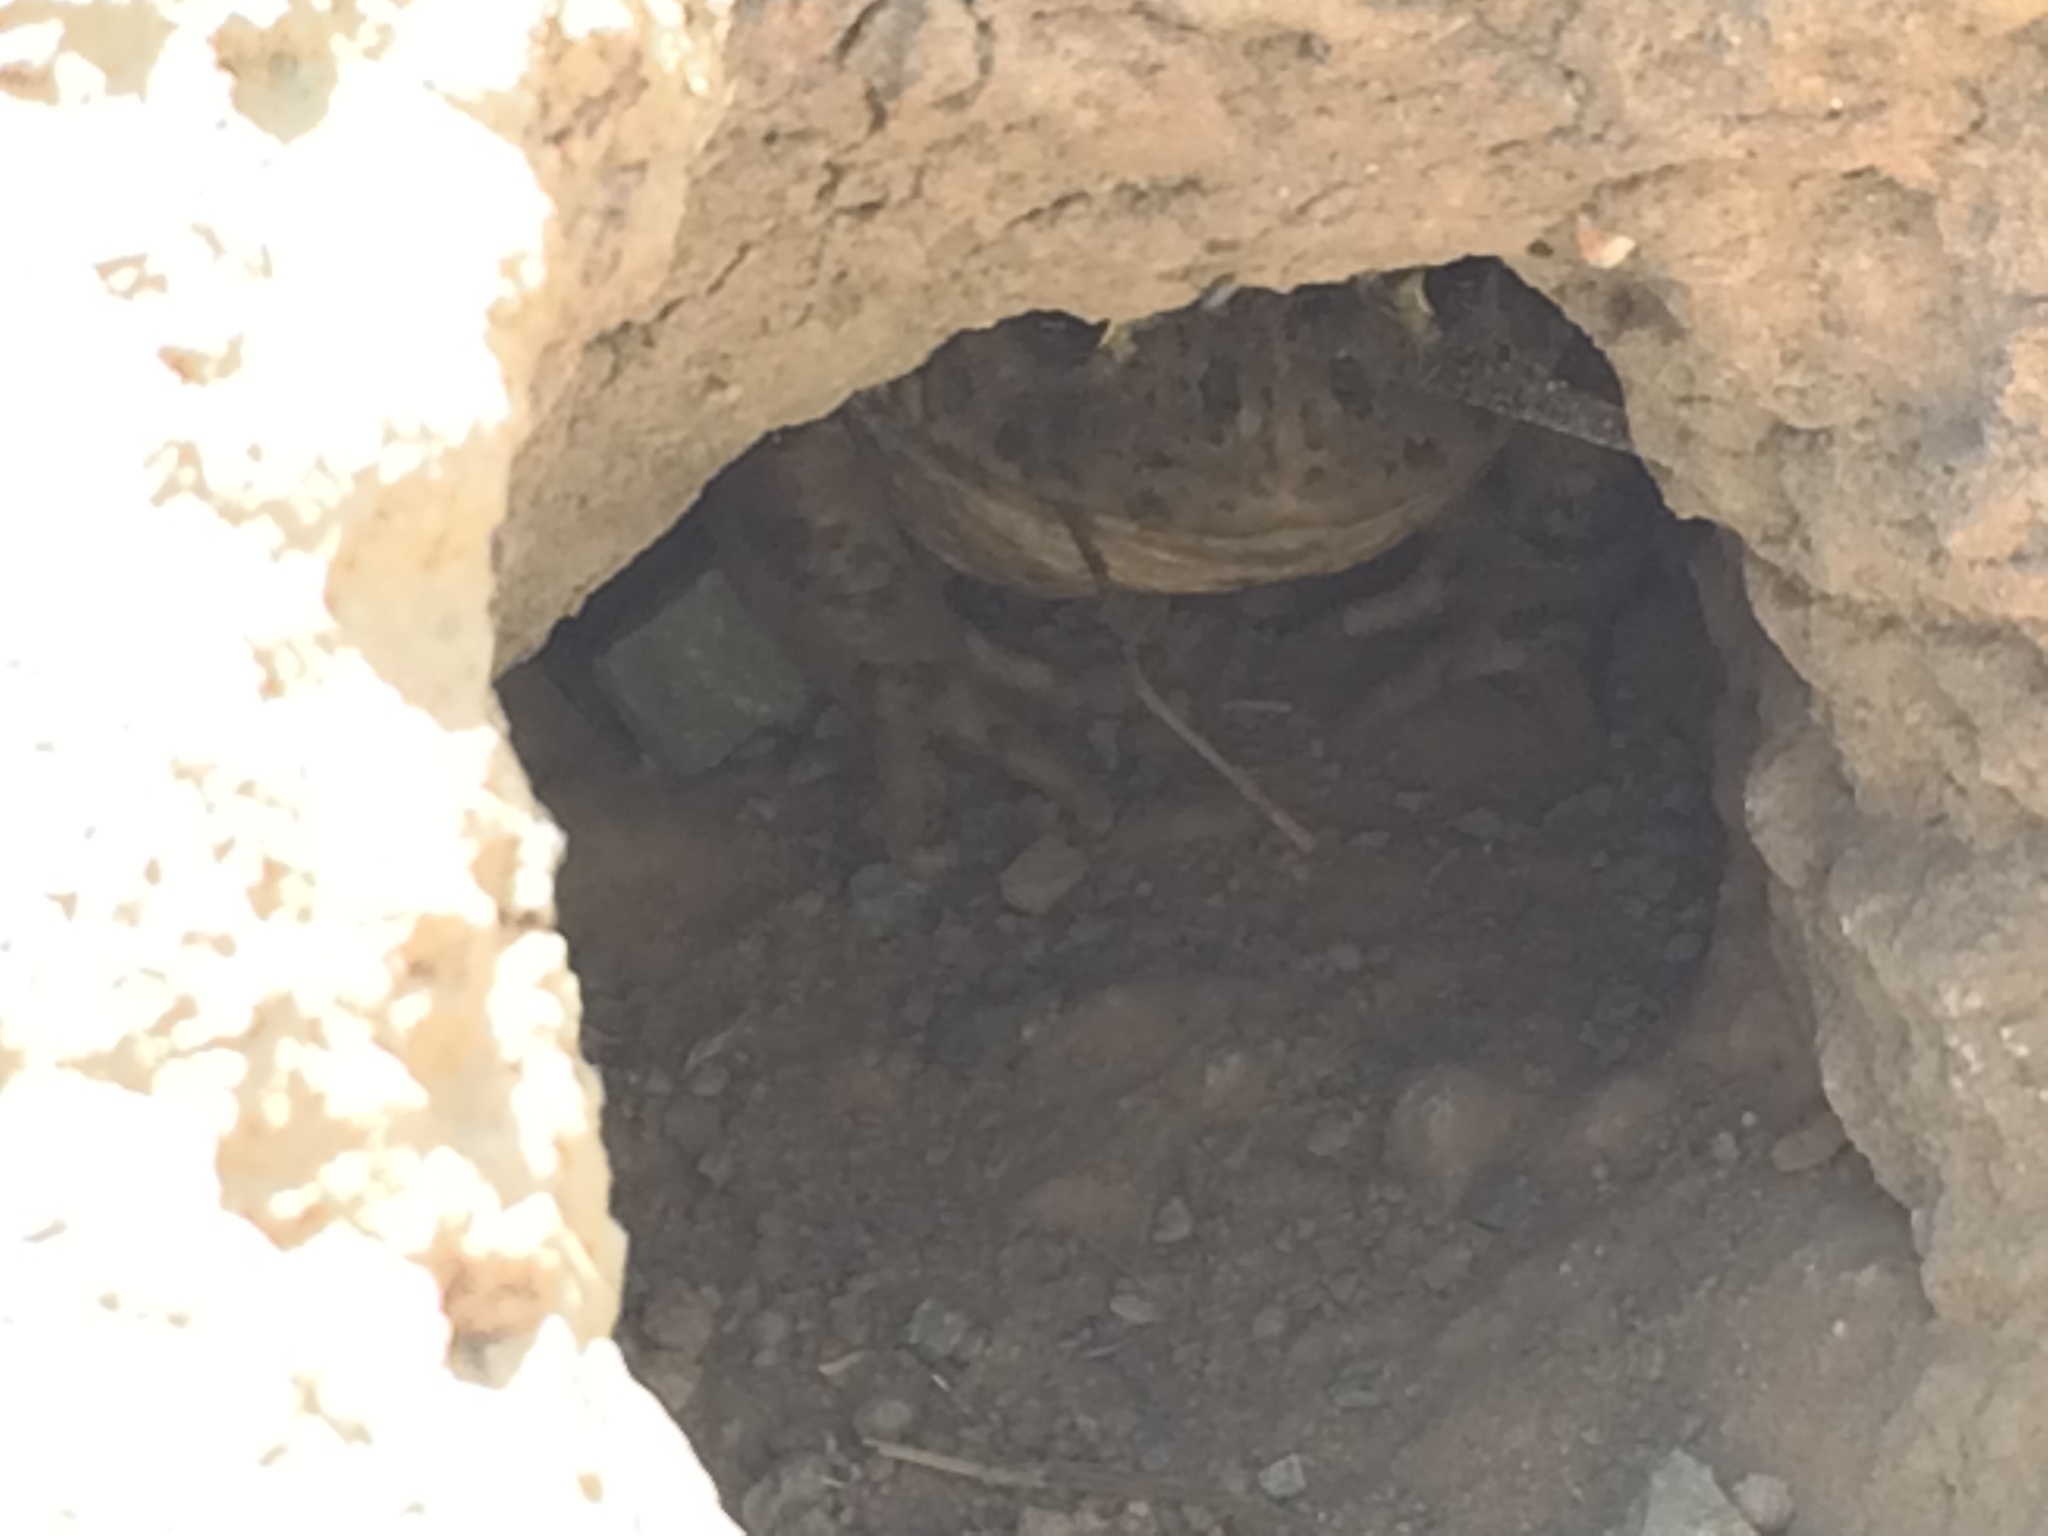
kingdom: Animalia
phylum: Chordata
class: Amphibia
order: Anura
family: Bufonidae
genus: Anaxyrus
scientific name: Anaxyrus boreas
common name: Western toad
